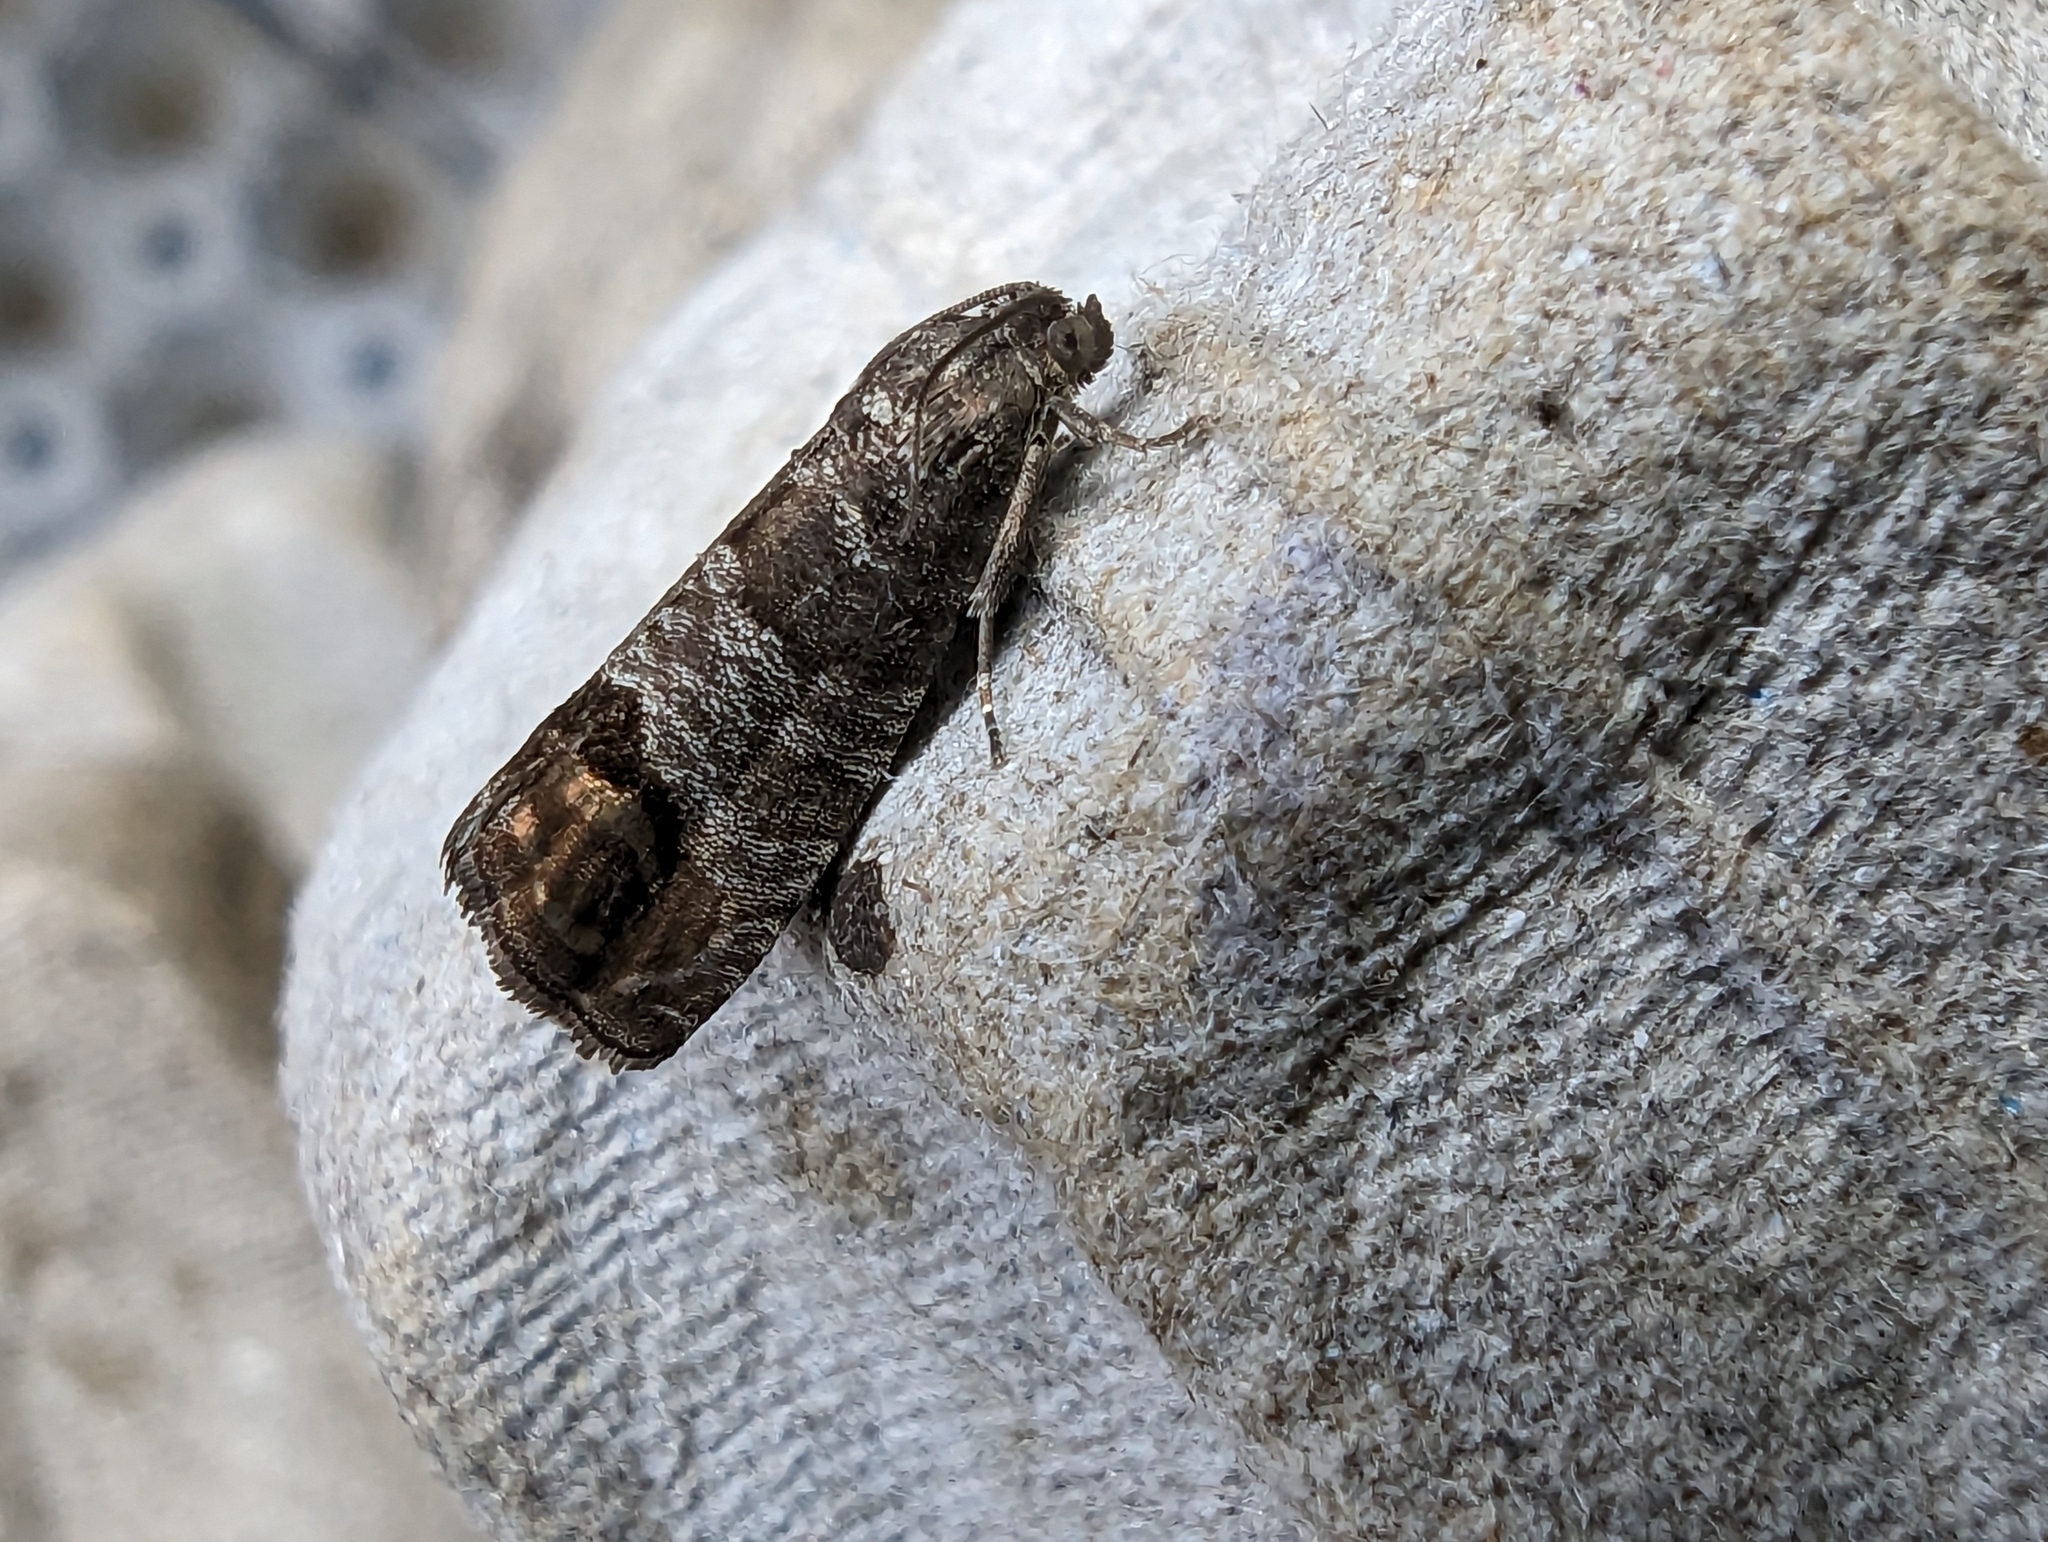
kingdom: Animalia
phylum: Arthropoda
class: Insecta
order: Lepidoptera
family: Tortricidae
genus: Cydia
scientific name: Cydia pomonella
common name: Codling moth
